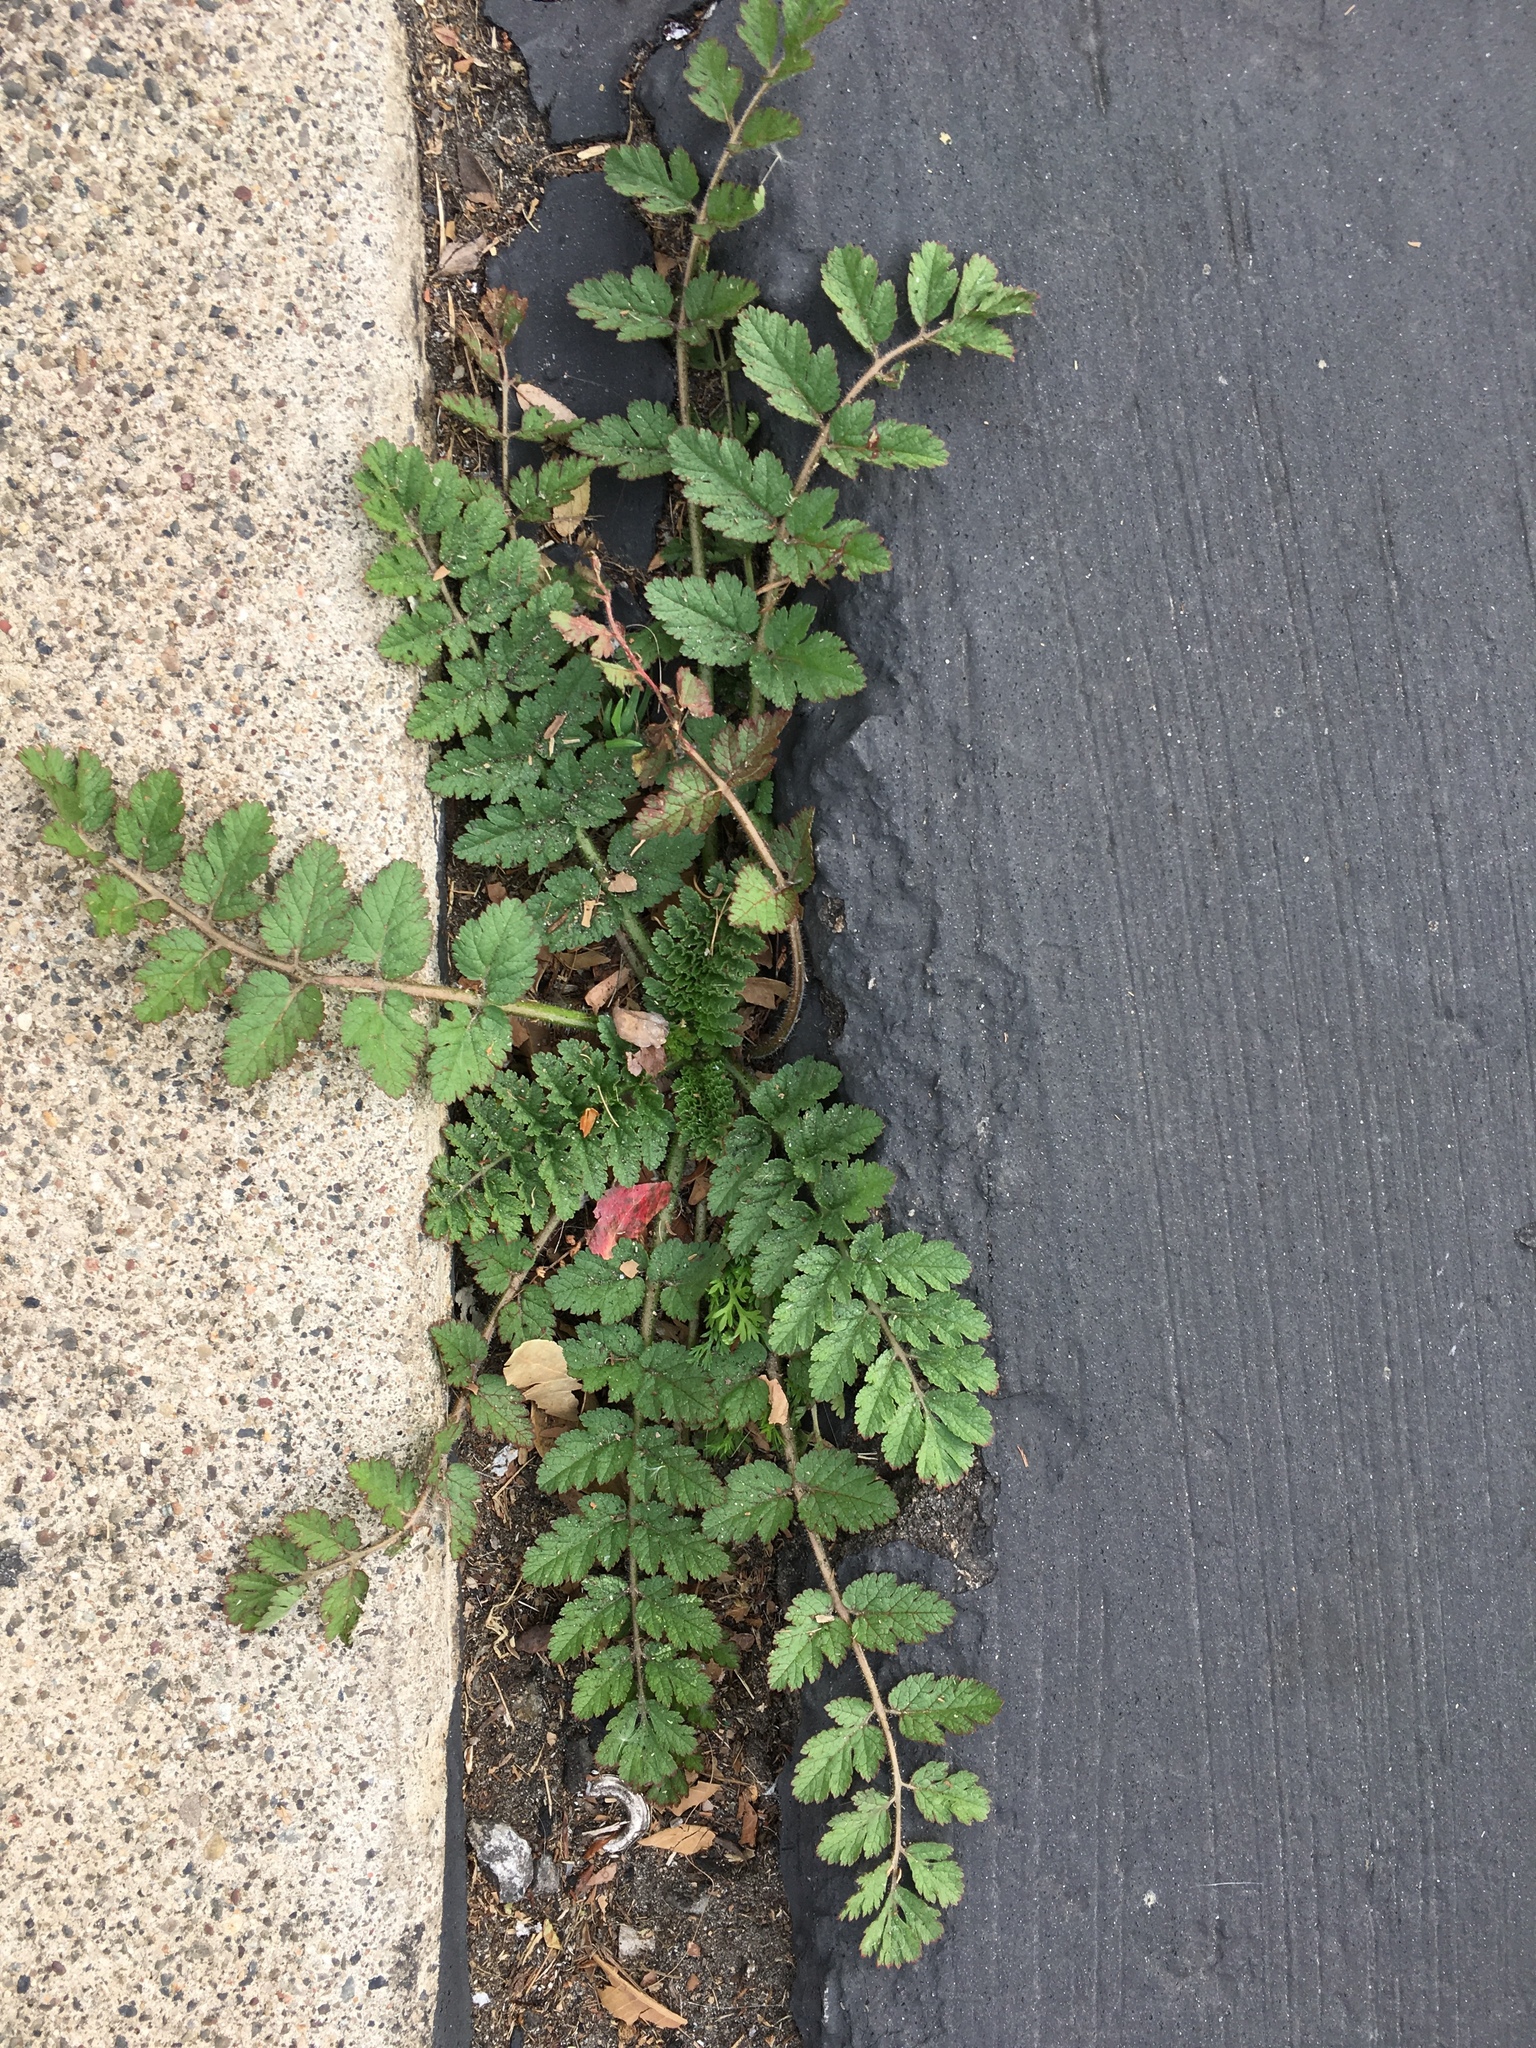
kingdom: Plantae
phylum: Tracheophyta
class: Magnoliopsida
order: Geraniales
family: Geraniaceae
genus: Erodium
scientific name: Erodium moschatum
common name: Musk stork's-bill
